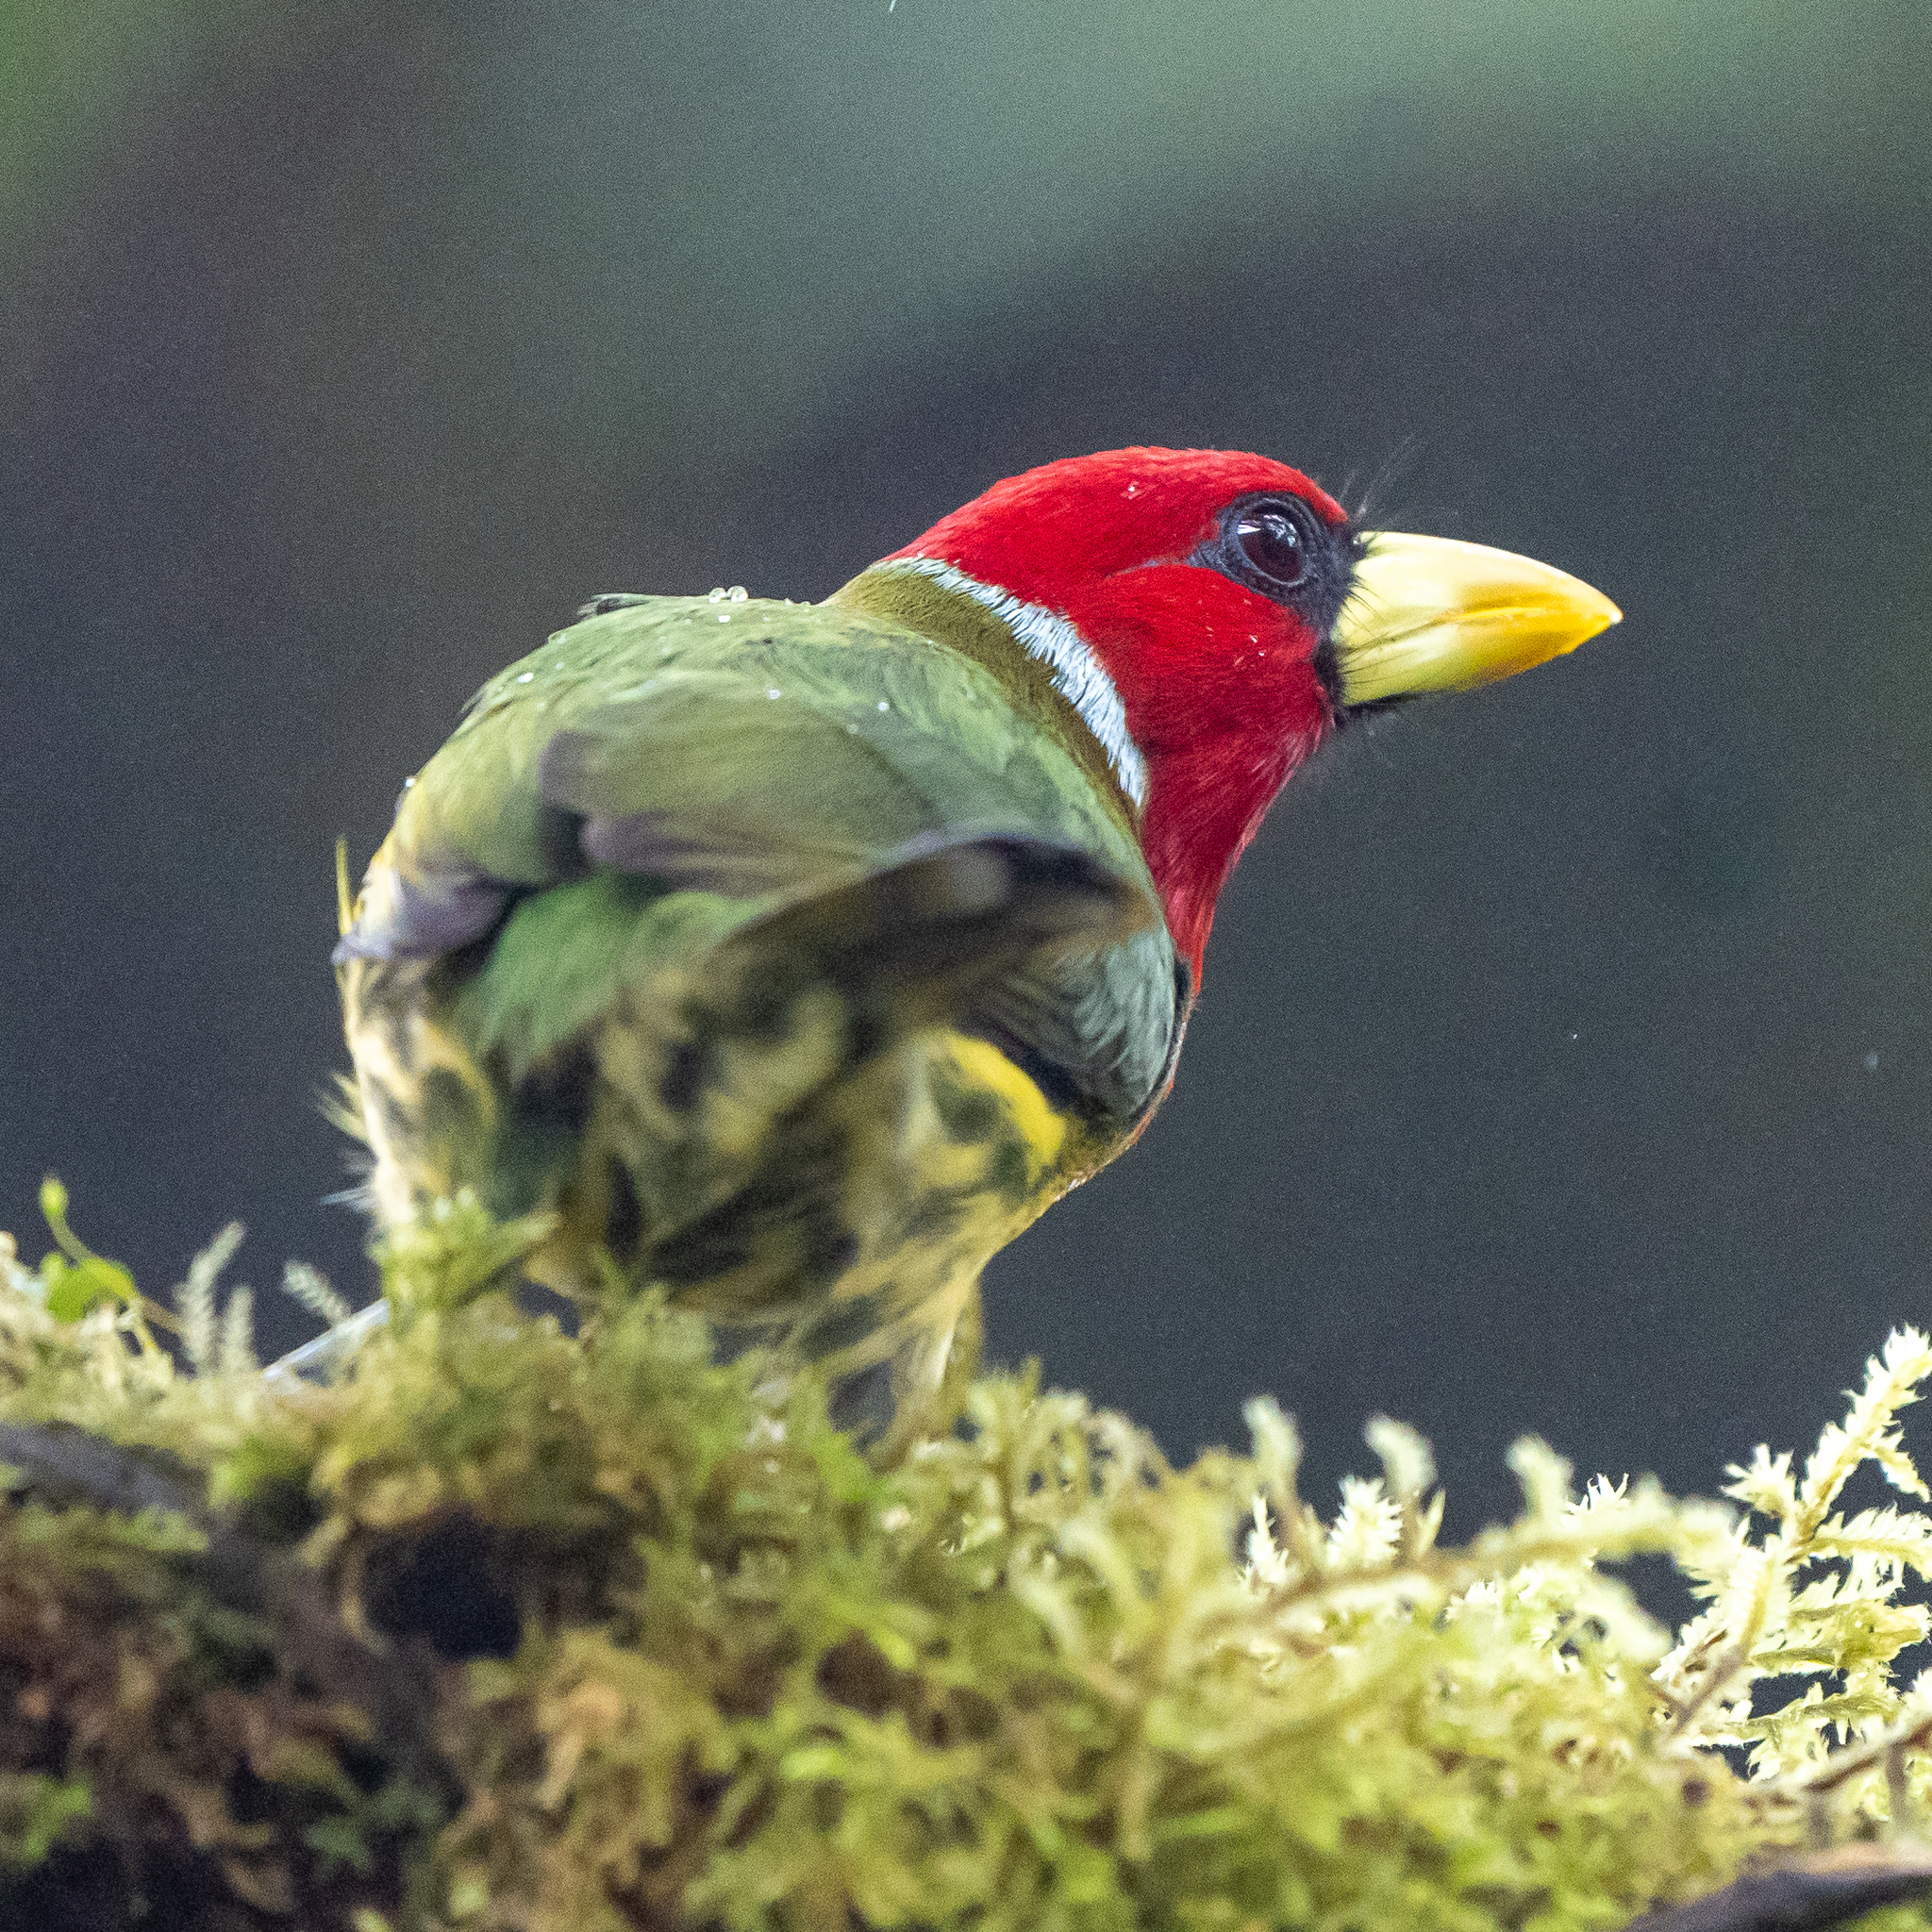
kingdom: Animalia
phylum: Chordata
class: Aves
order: Piciformes
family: Capitonidae
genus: Eubucco
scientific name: Eubucco bourcierii
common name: Red-headed barbet
